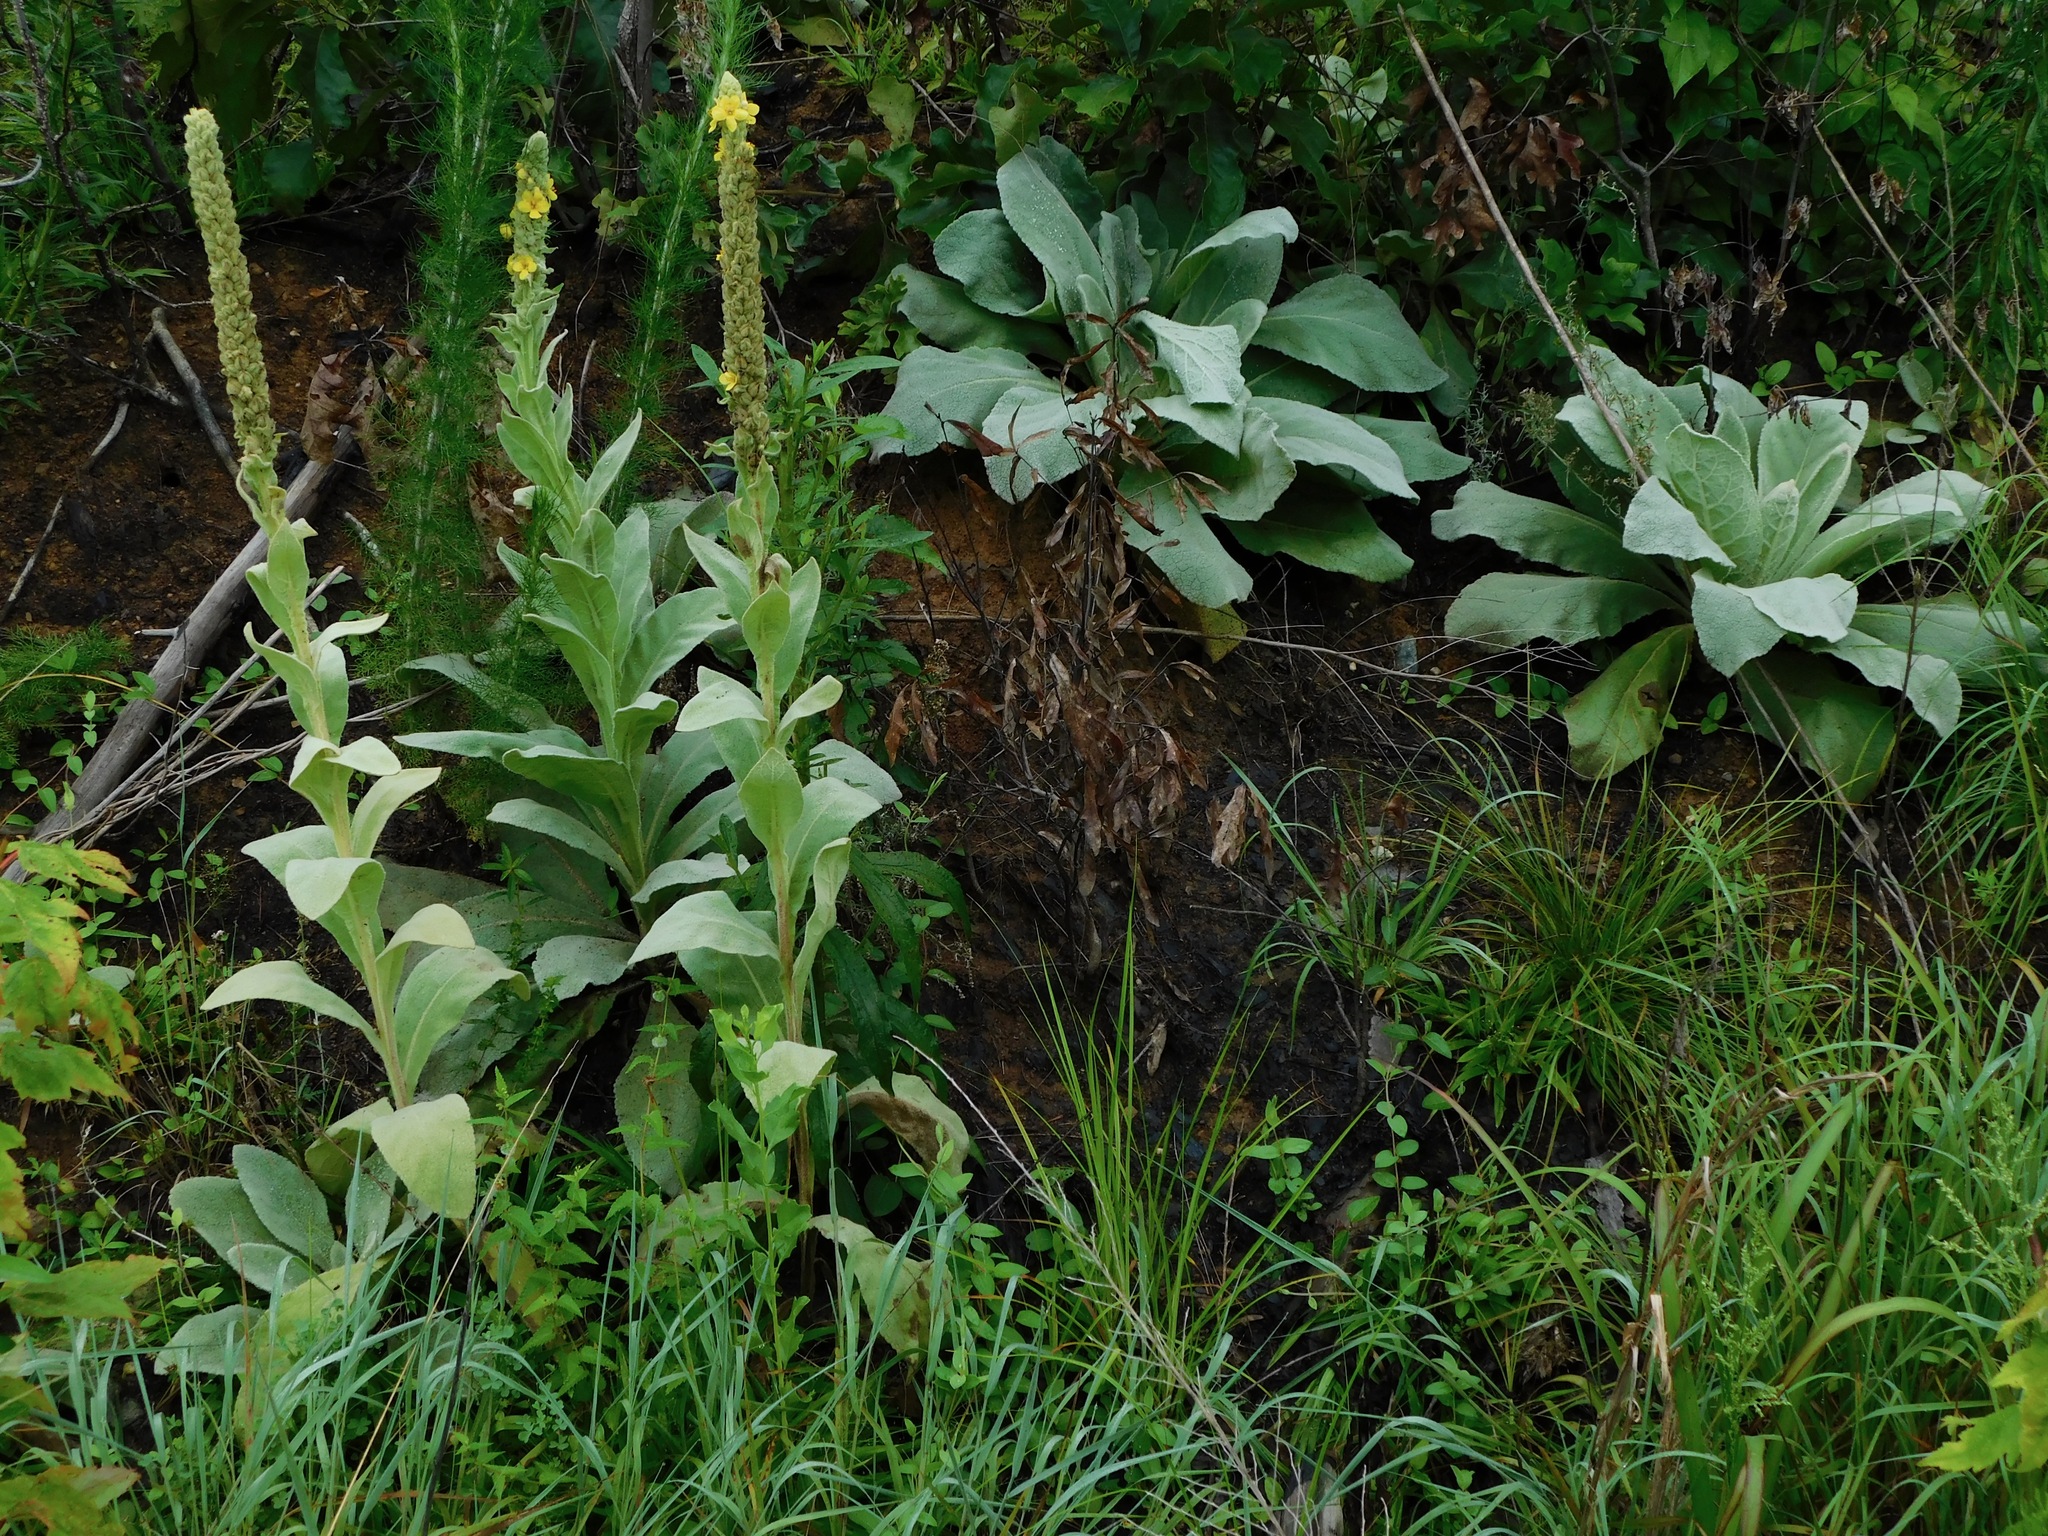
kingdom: Plantae
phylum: Tracheophyta
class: Magnoliopsida
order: Lamiales
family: Scrophulariaceae
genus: Verbascum
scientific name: Verbascum thapsus
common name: Common mullein
